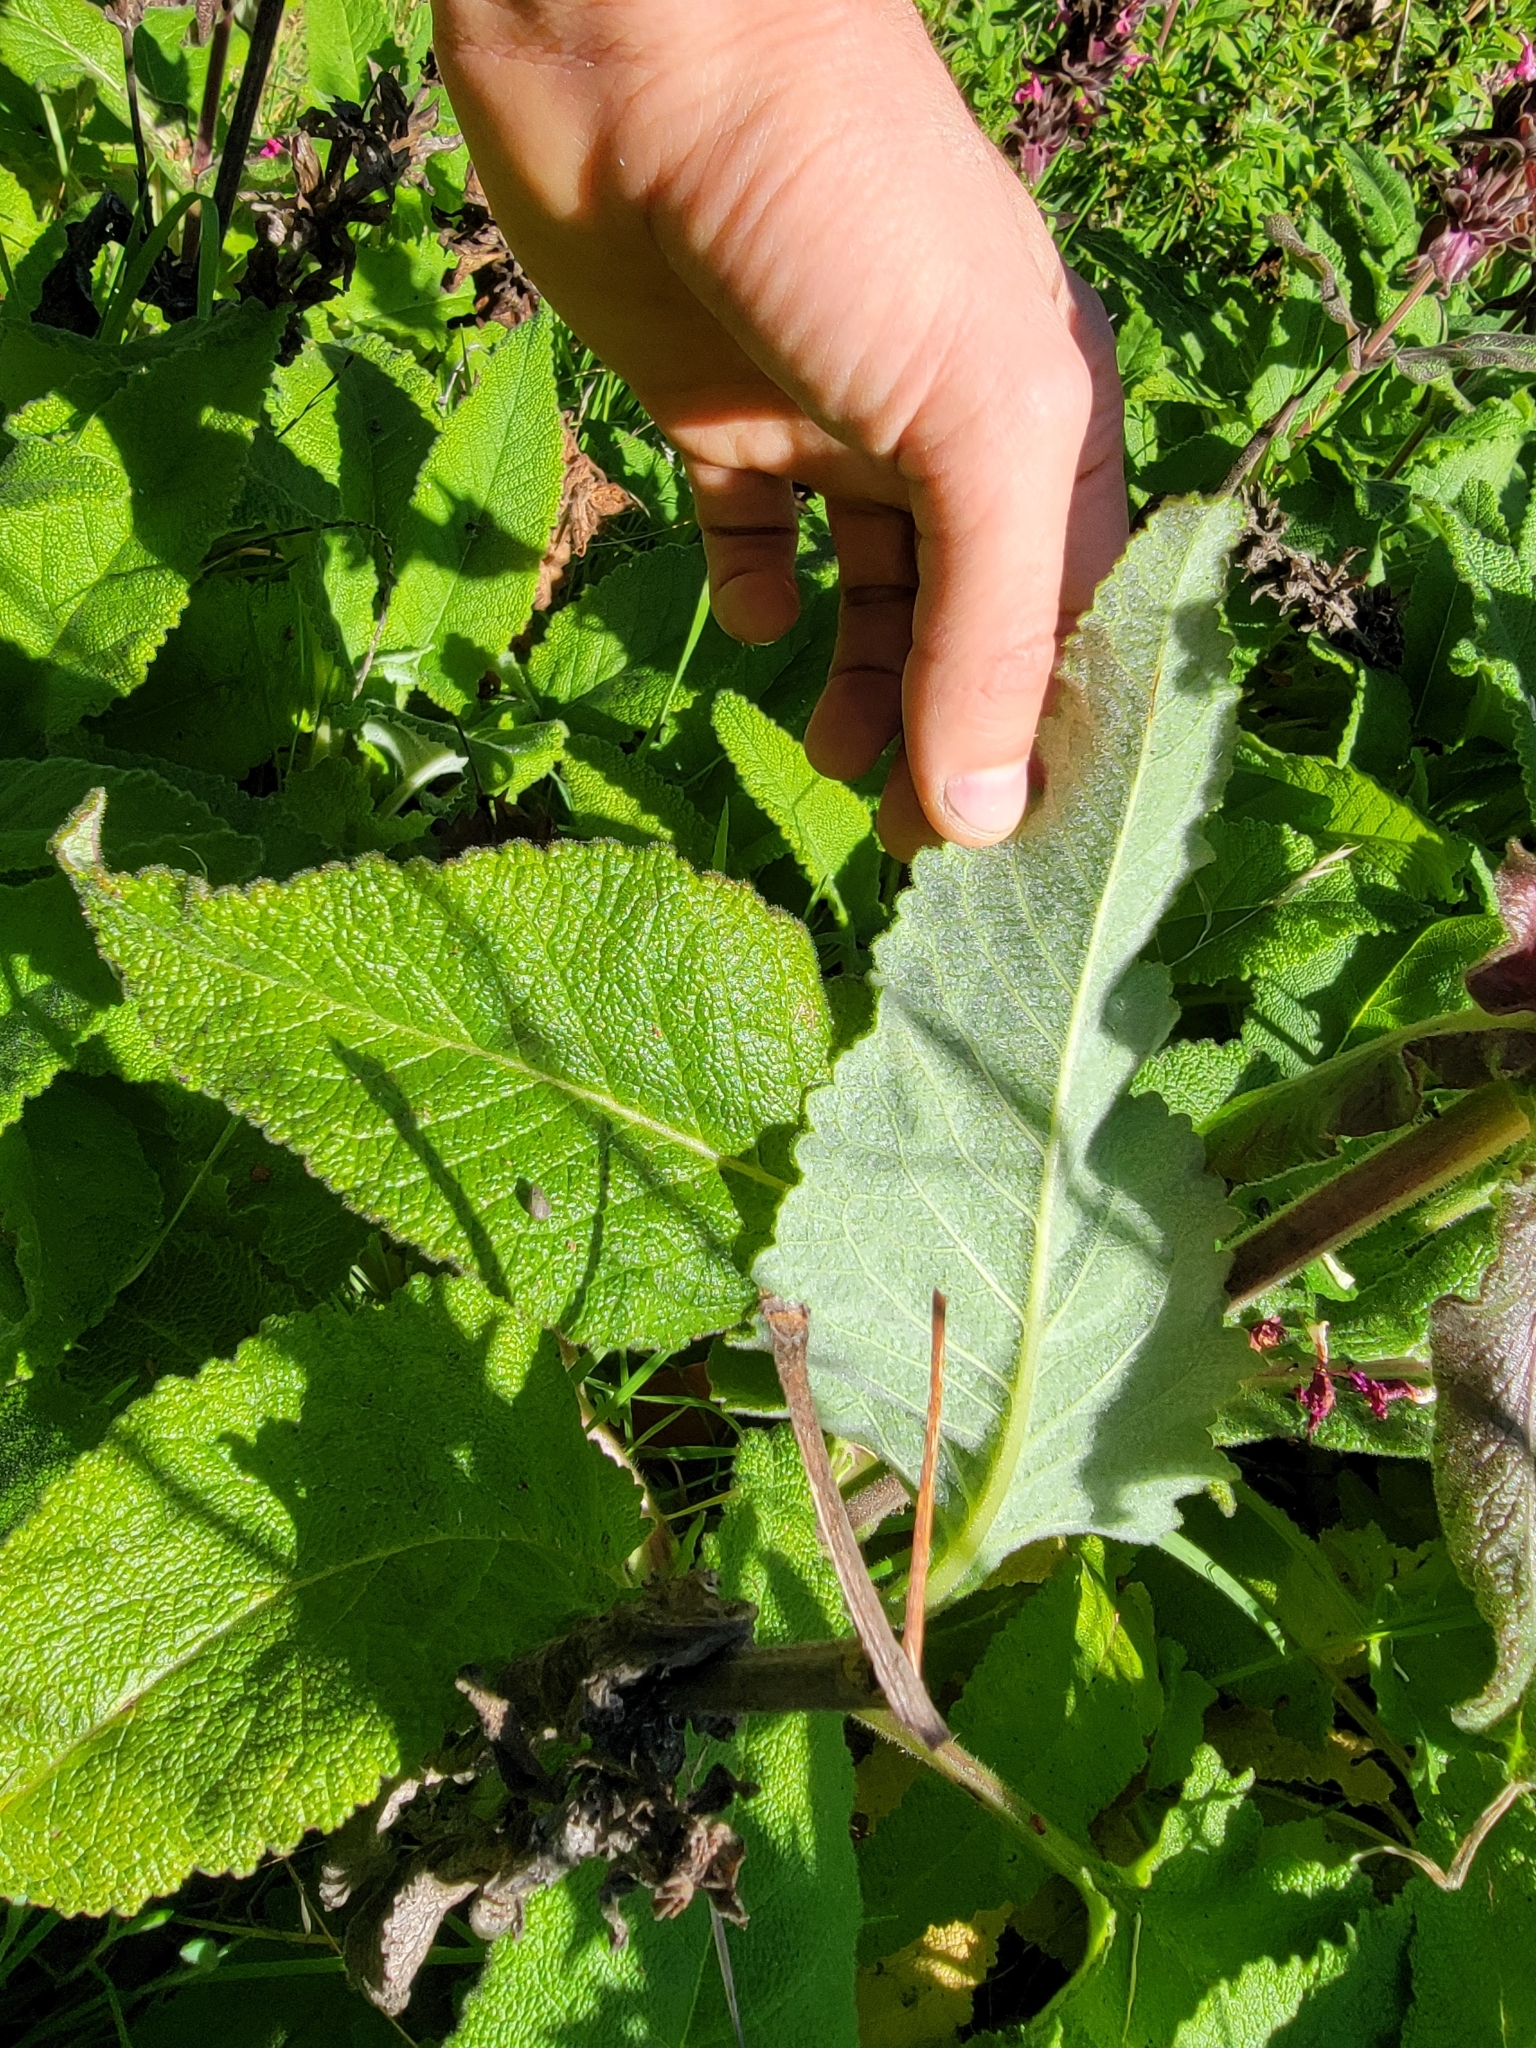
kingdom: Plantae
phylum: Tracheophyta
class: Magnoliopsida
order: Lamiales
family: Lamiaceae
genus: Salvia
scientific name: Salvia spathacea
